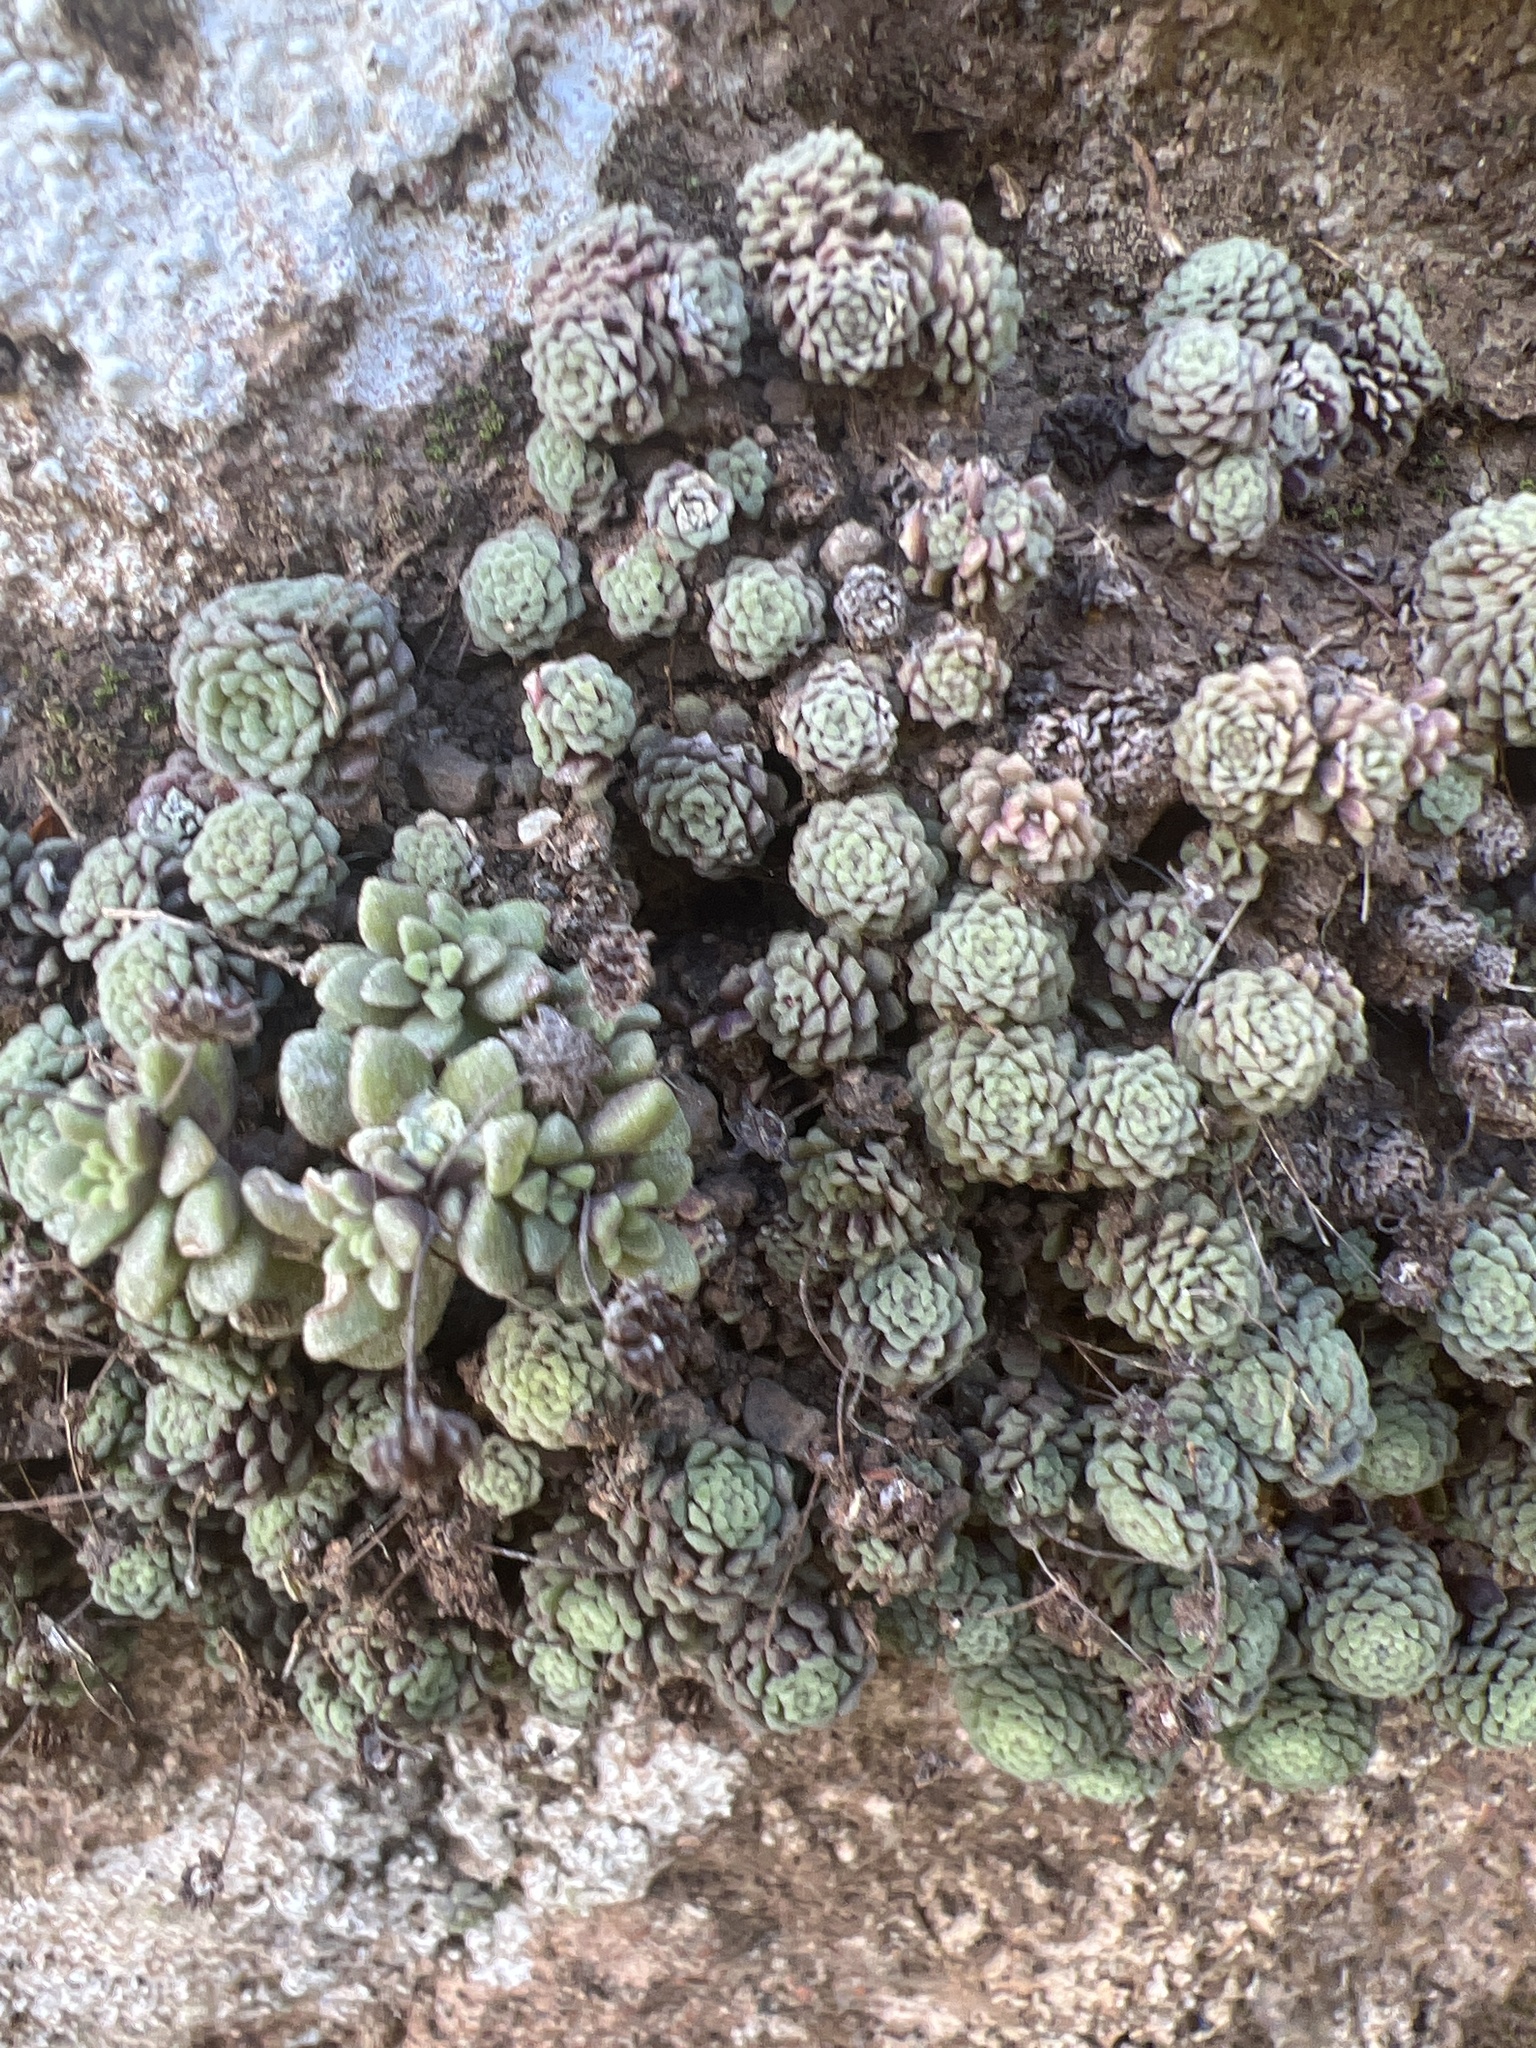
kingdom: Plantae
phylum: Tracheophyta
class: Magnoliopsida
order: Saxifragales
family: Crassulaceae
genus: Monanthes
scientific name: Monanthes polyphylla
